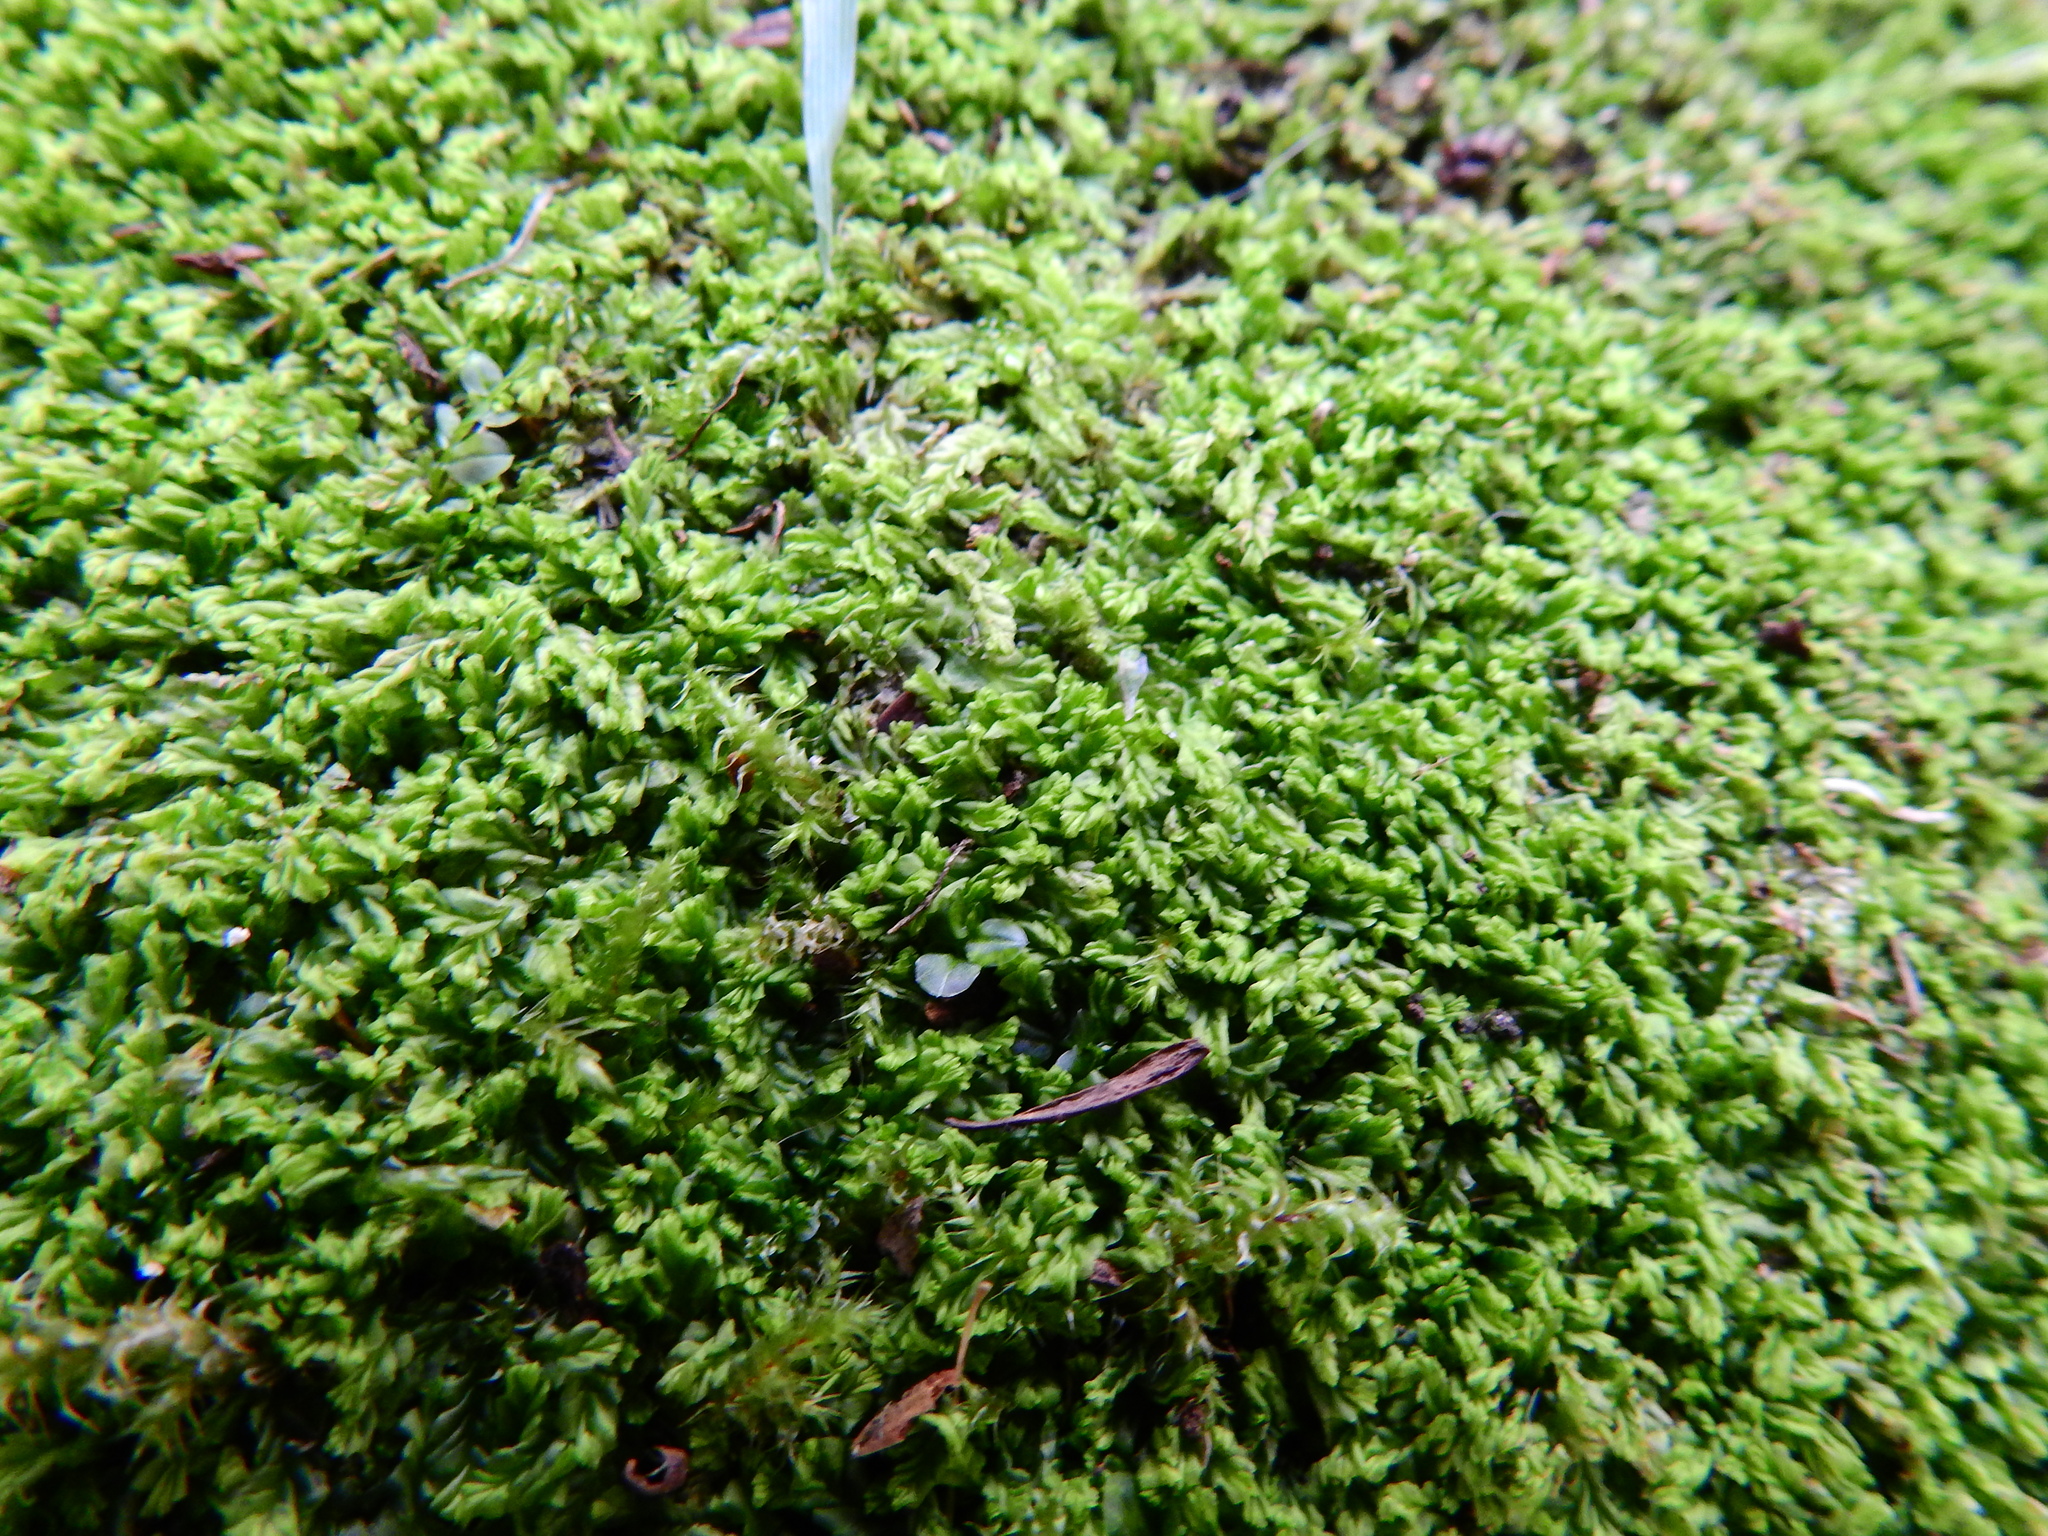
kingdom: Plantae
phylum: Marchantiophyta
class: Jungermanniopsida
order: Jungermanniales
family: Lophocoleaceae
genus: Lophocolea
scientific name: Lophocolea semiteres
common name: Southern crestwort
